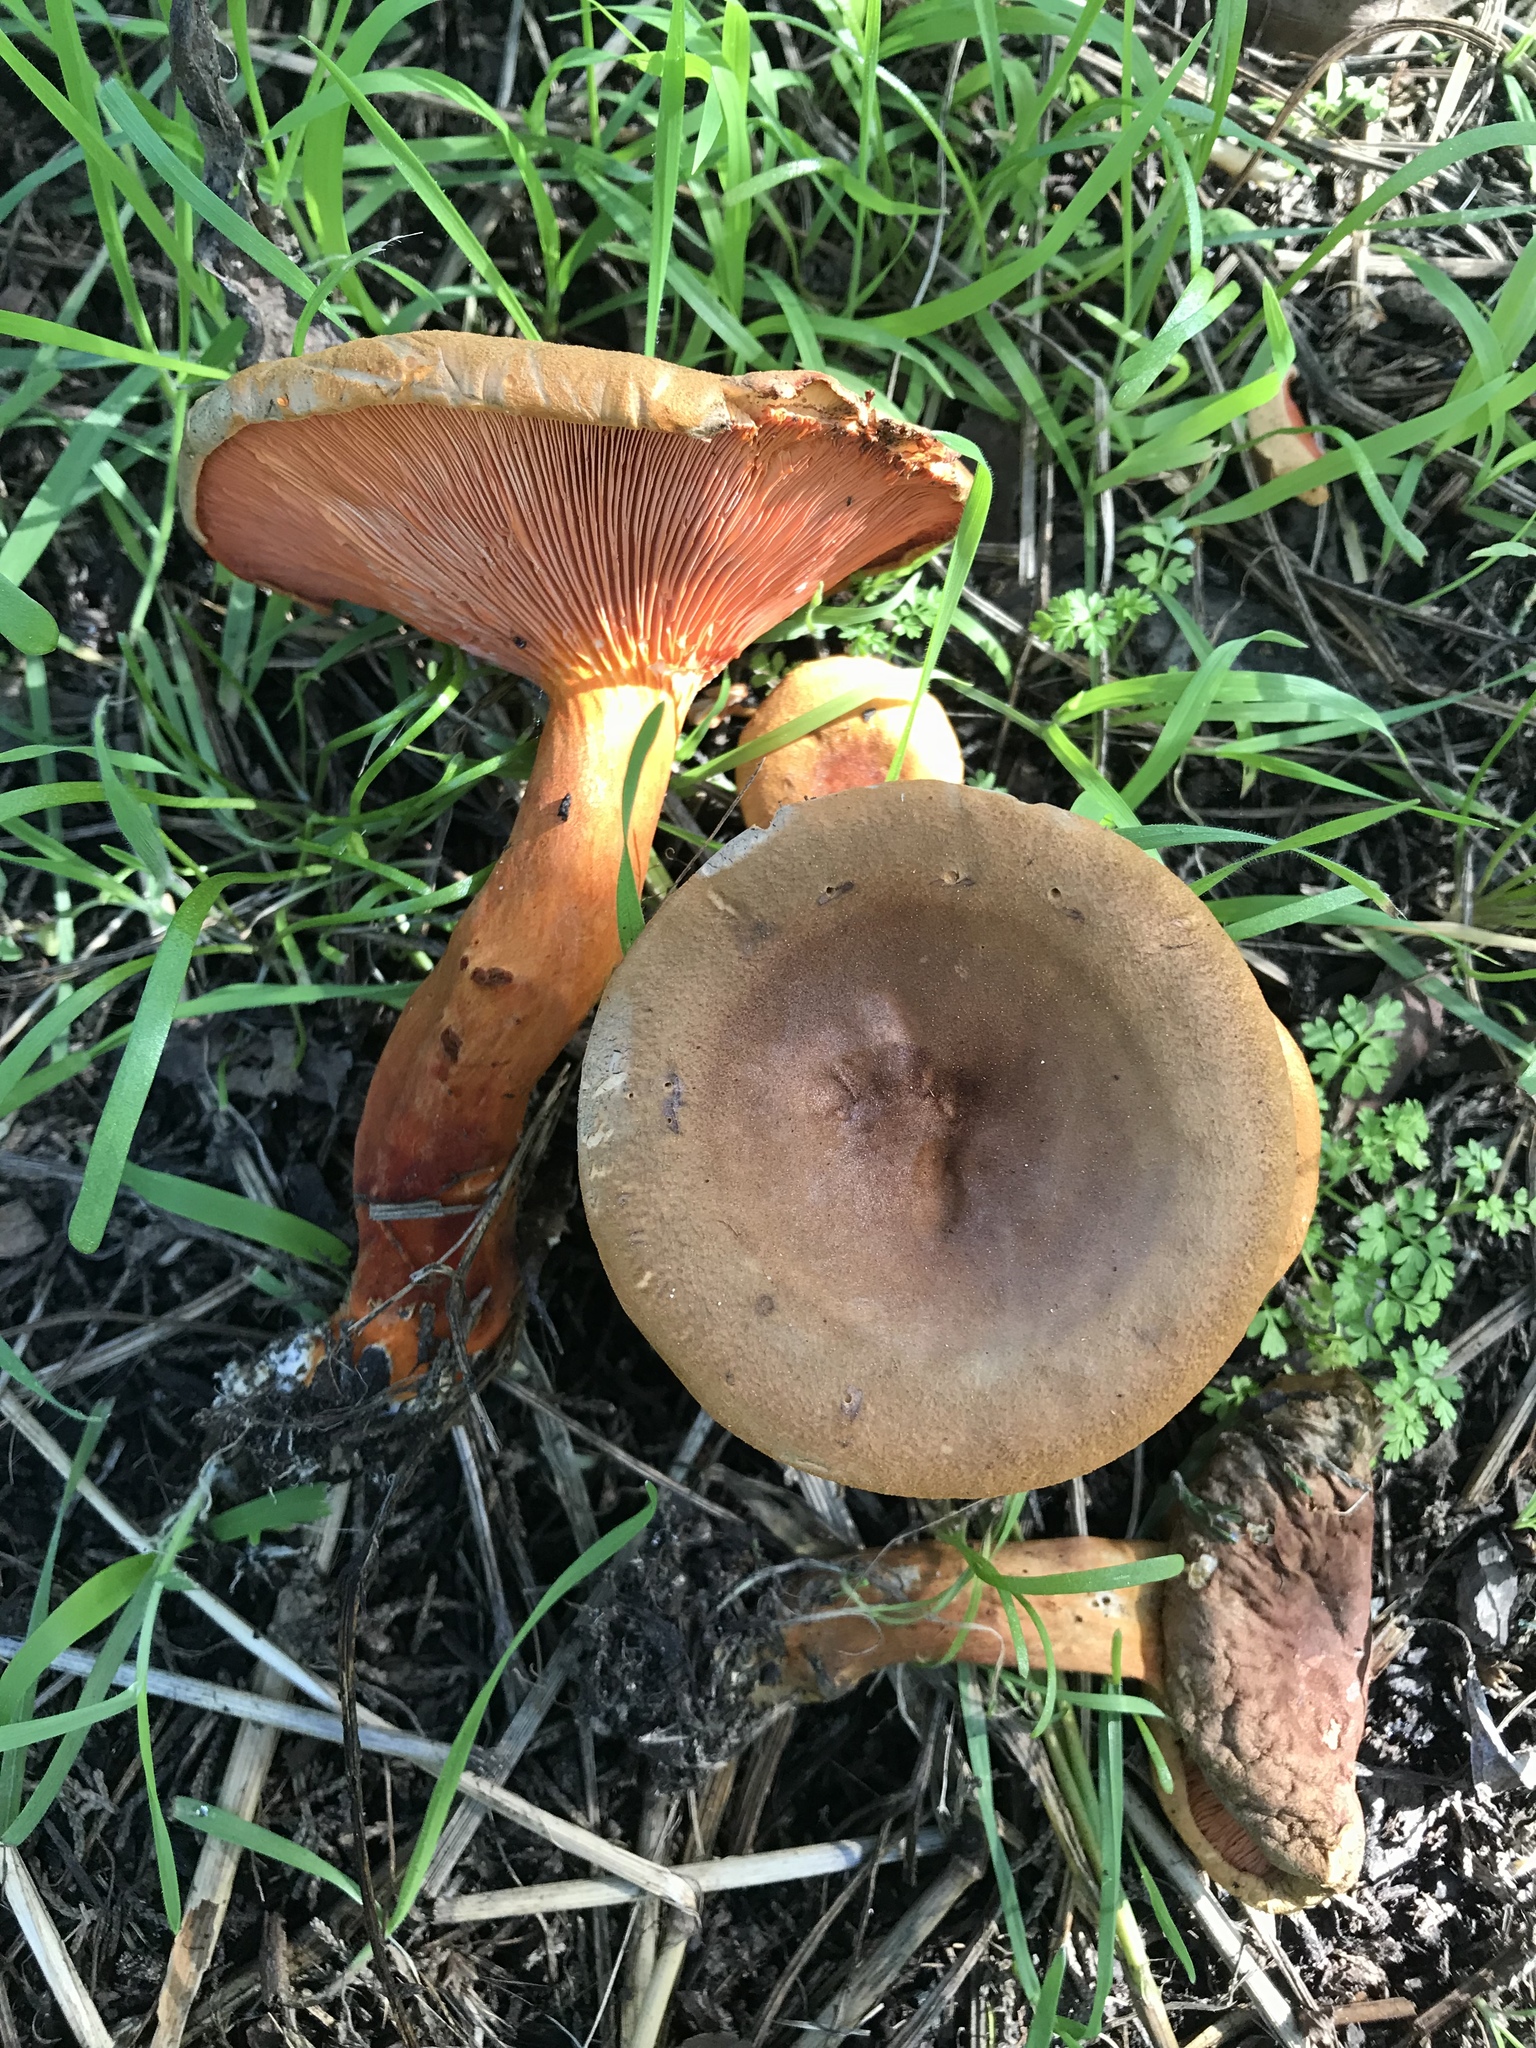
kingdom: Fungi
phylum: Basidiomycota
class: Agaricomycetes
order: Boletales
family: Hygrophoropsidaceae
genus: Hygrophoropsis
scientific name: Hygrophoropsis aurantiaca
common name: False chanterelle
